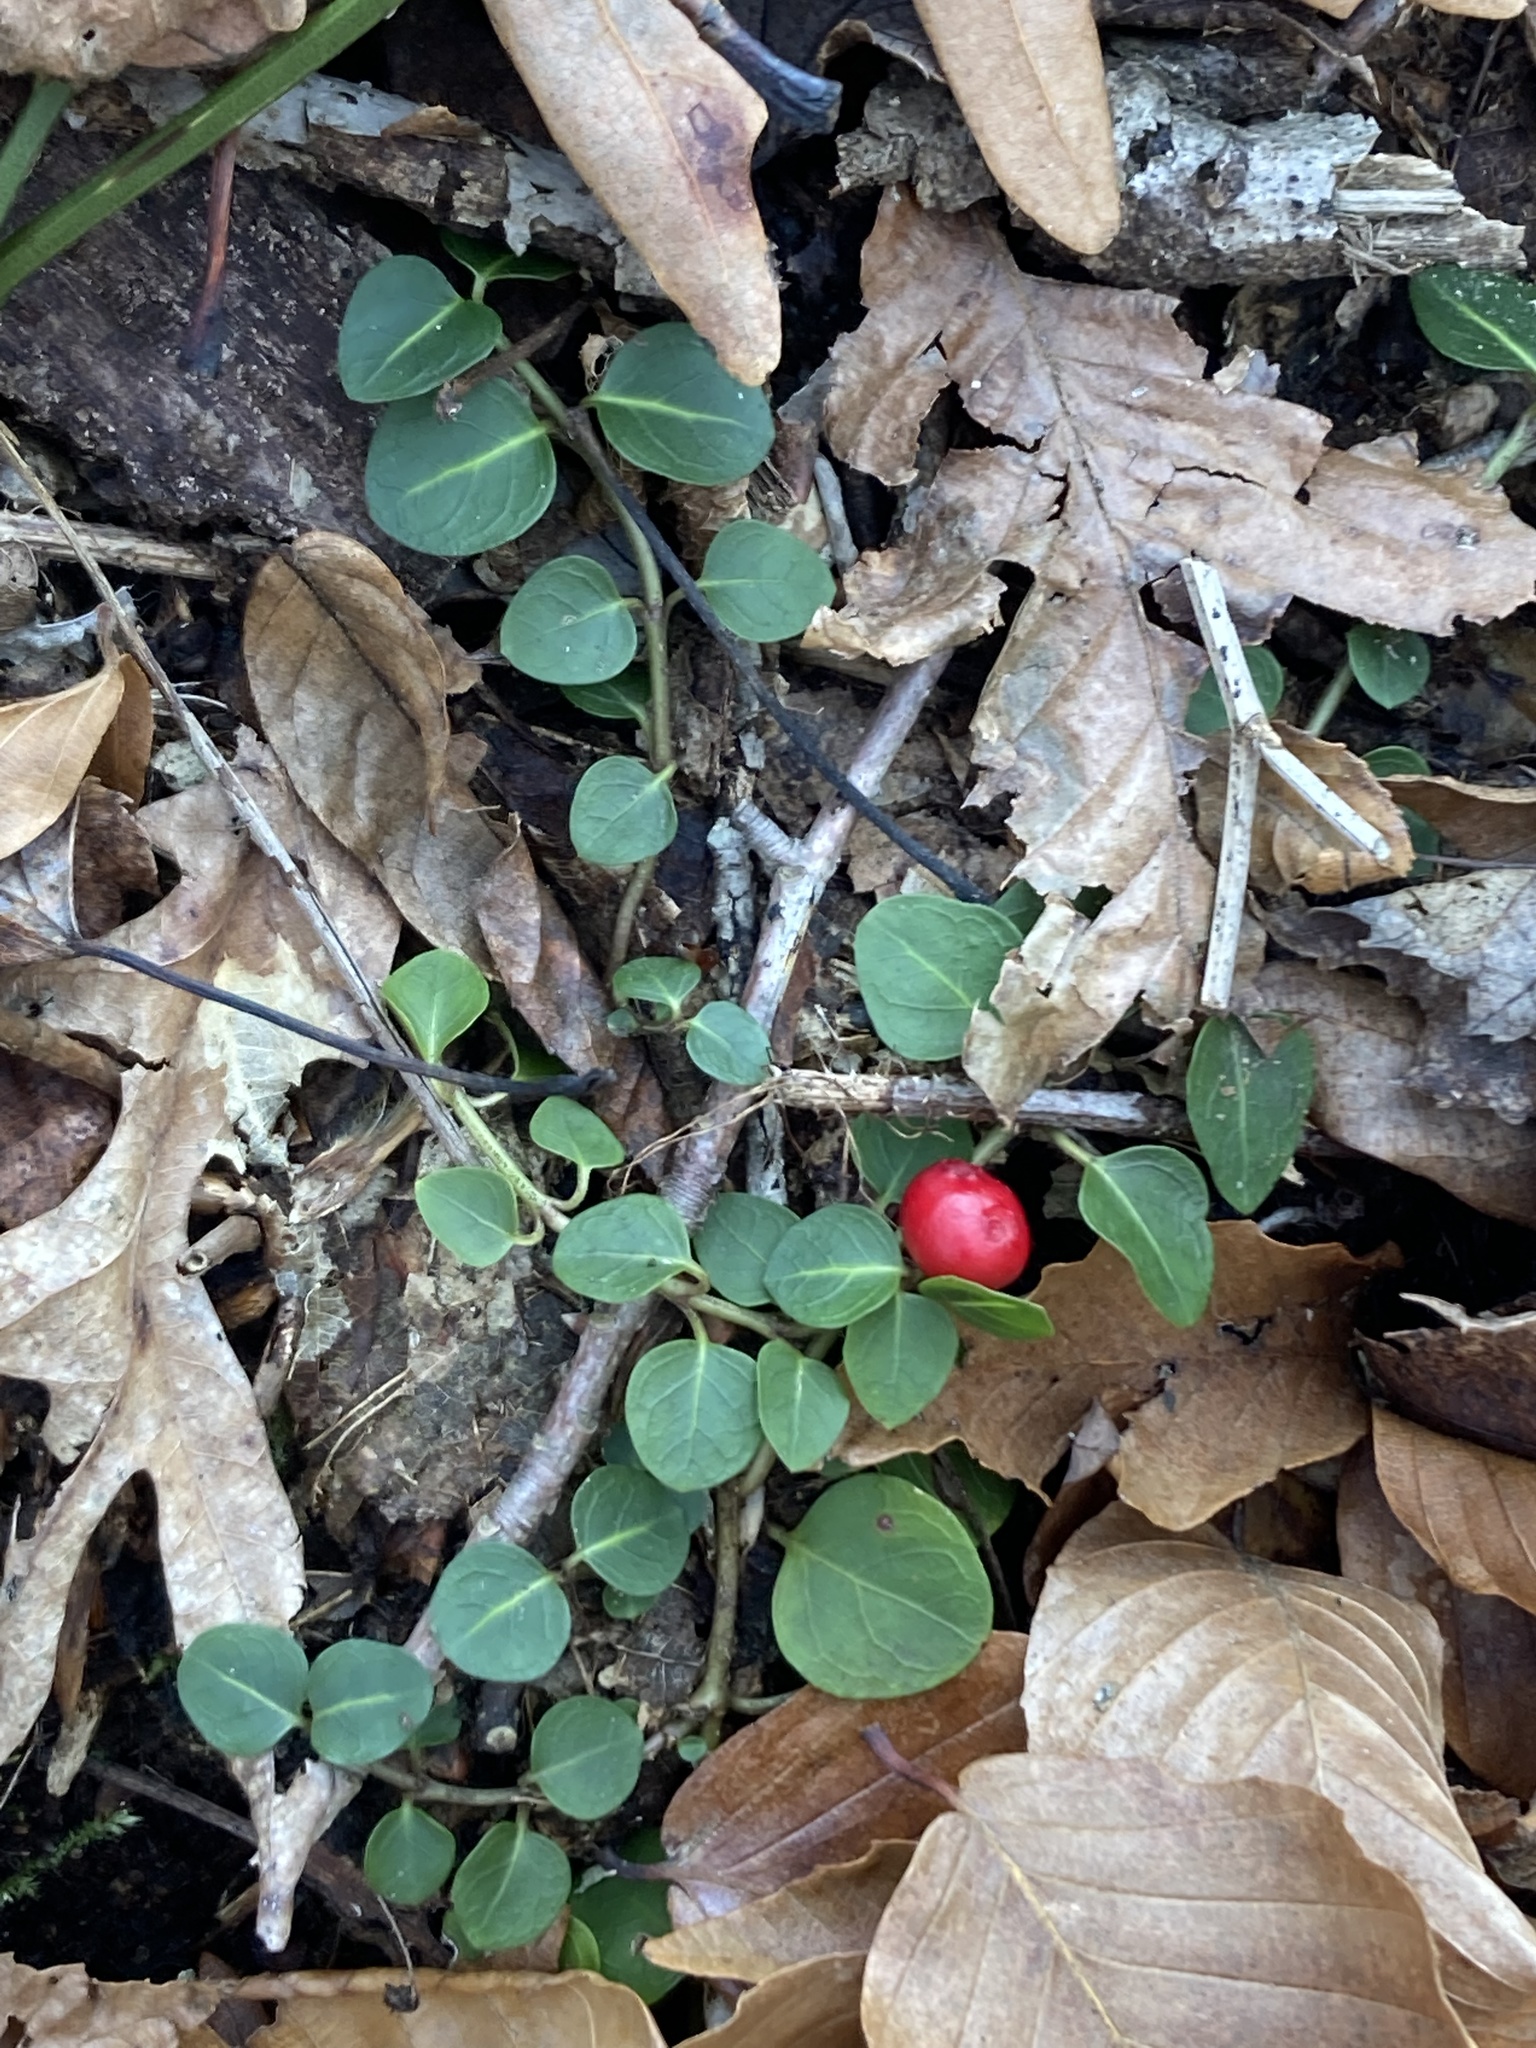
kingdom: Plantae
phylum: Tracheophyta
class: Magnoliopsida
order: Gentianales
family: Rubiaceae
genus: Mitchella
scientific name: Mitchella repens
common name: Partridge-berry
